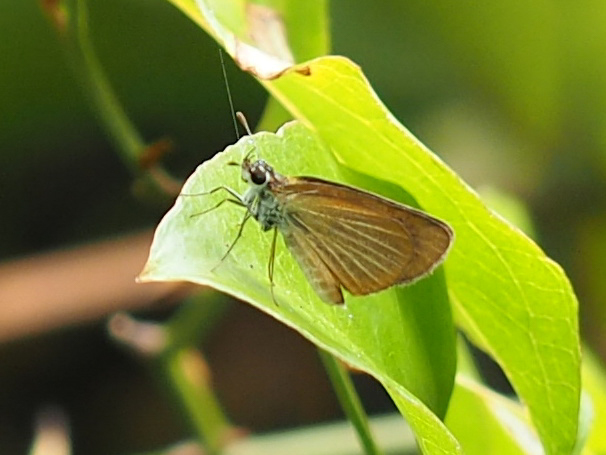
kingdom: Animalia
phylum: Arthropoda
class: Insecta
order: Lepidoptera
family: Hesperiidae
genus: Ancyloxypha
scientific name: Ancyloxypha numitor
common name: Least skipper
